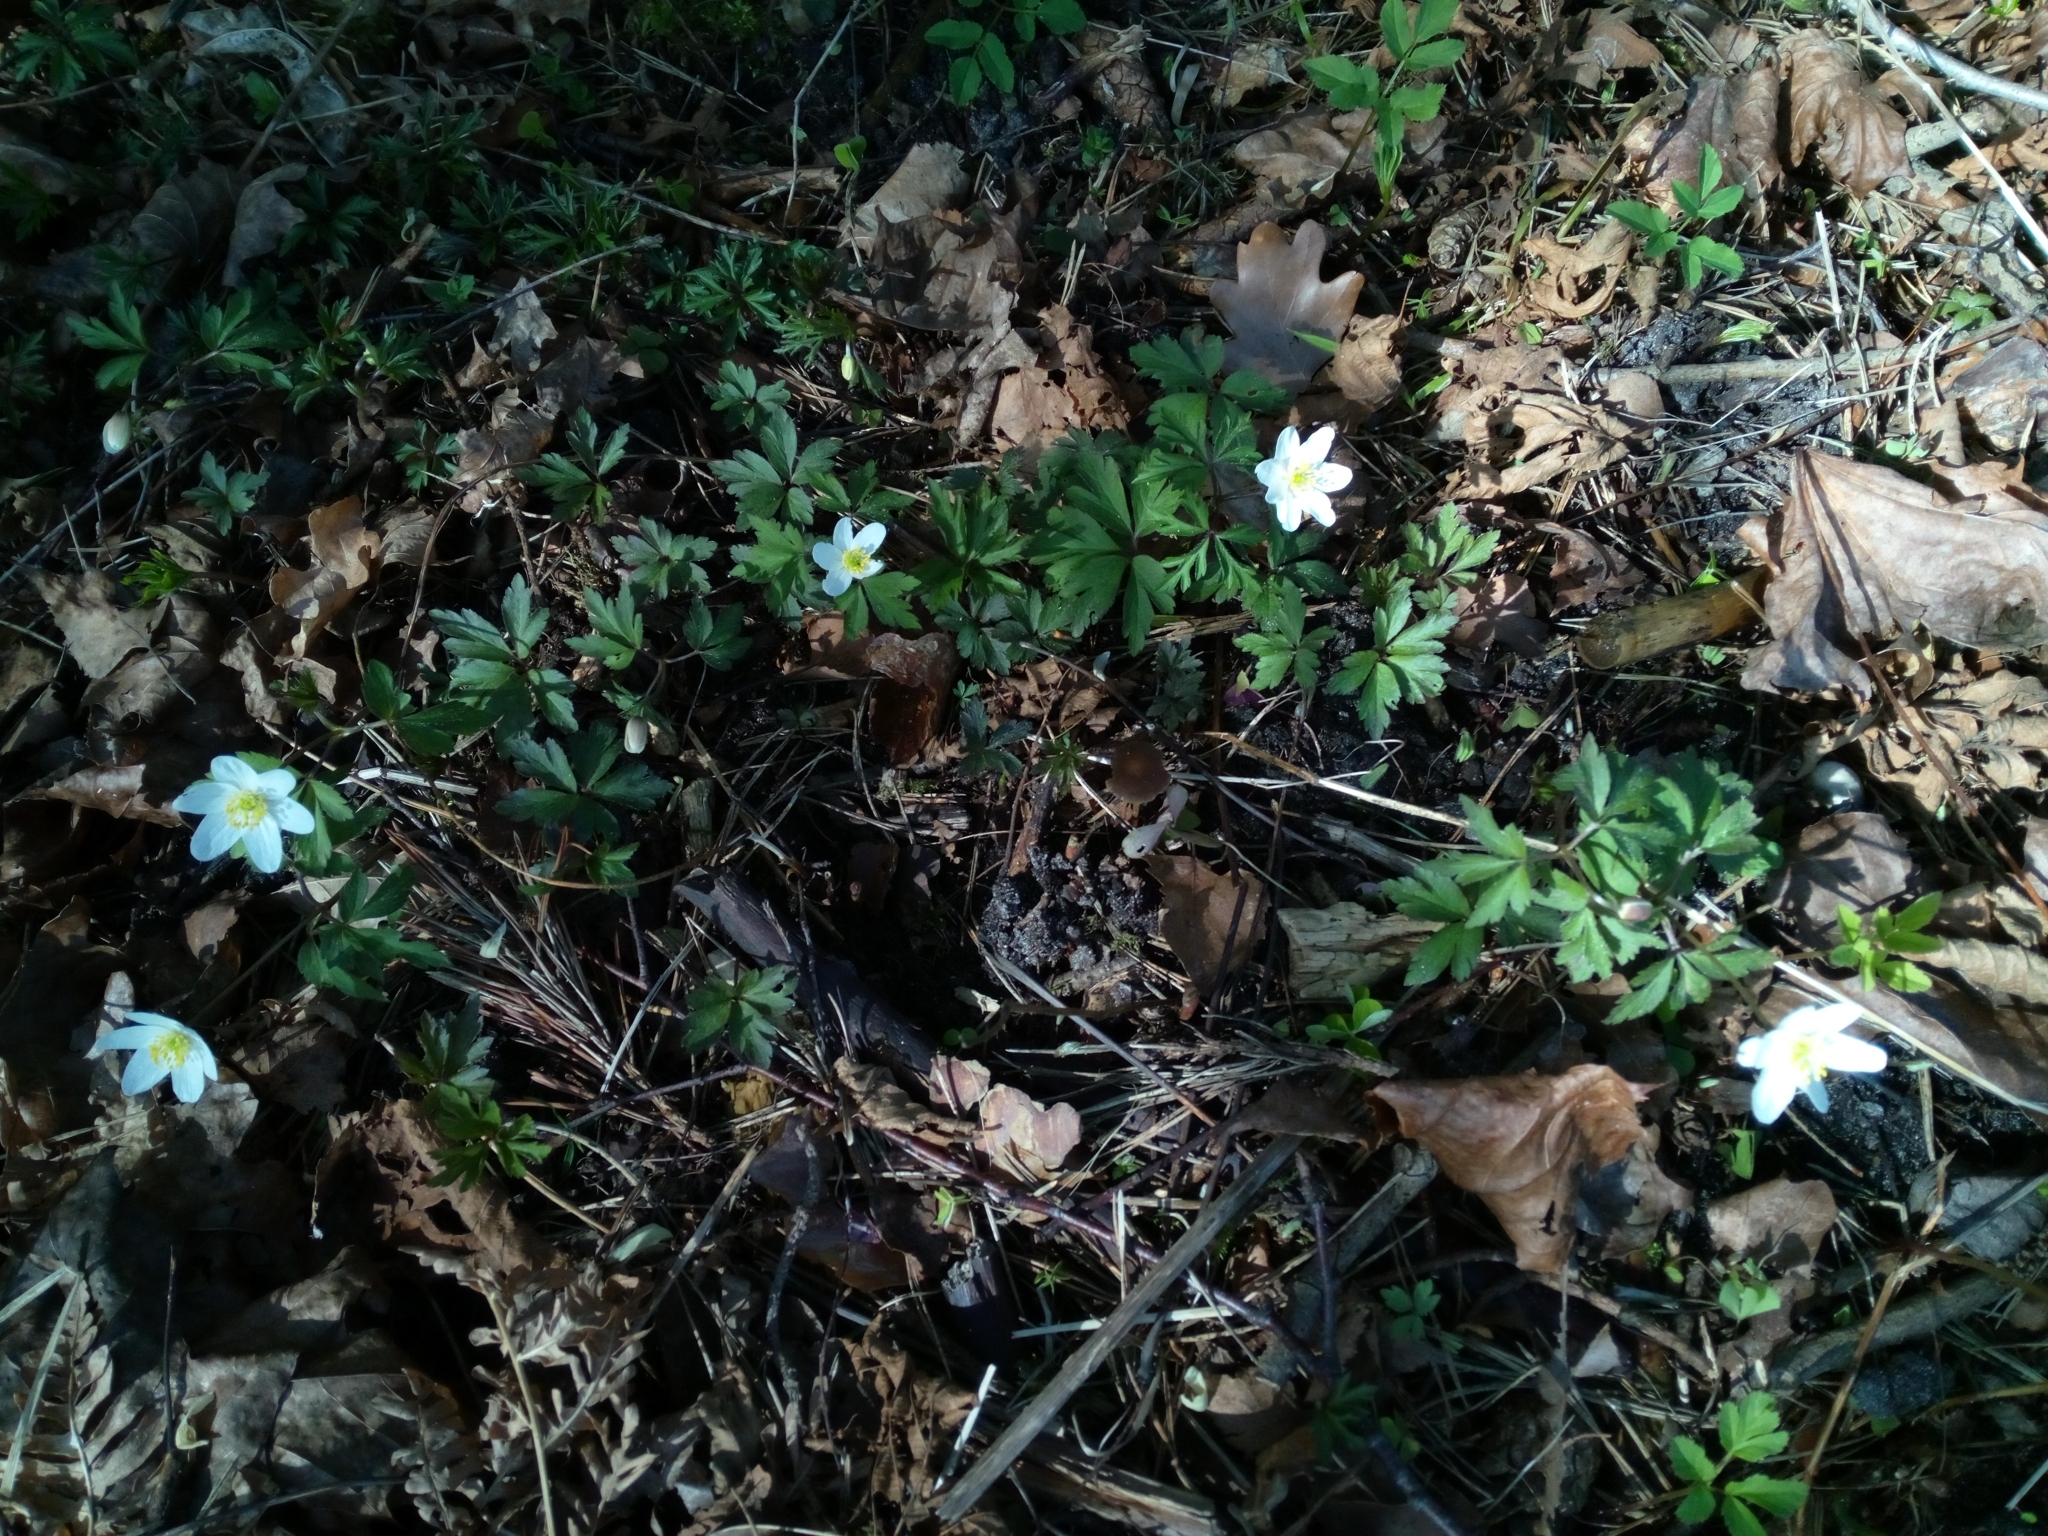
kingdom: Plantae
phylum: Tracheophyta
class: Magnoliopsida
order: Ranunculales
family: Ranunculaceae
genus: Anemone
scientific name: Anemone nemorosa
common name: Wood anemone
